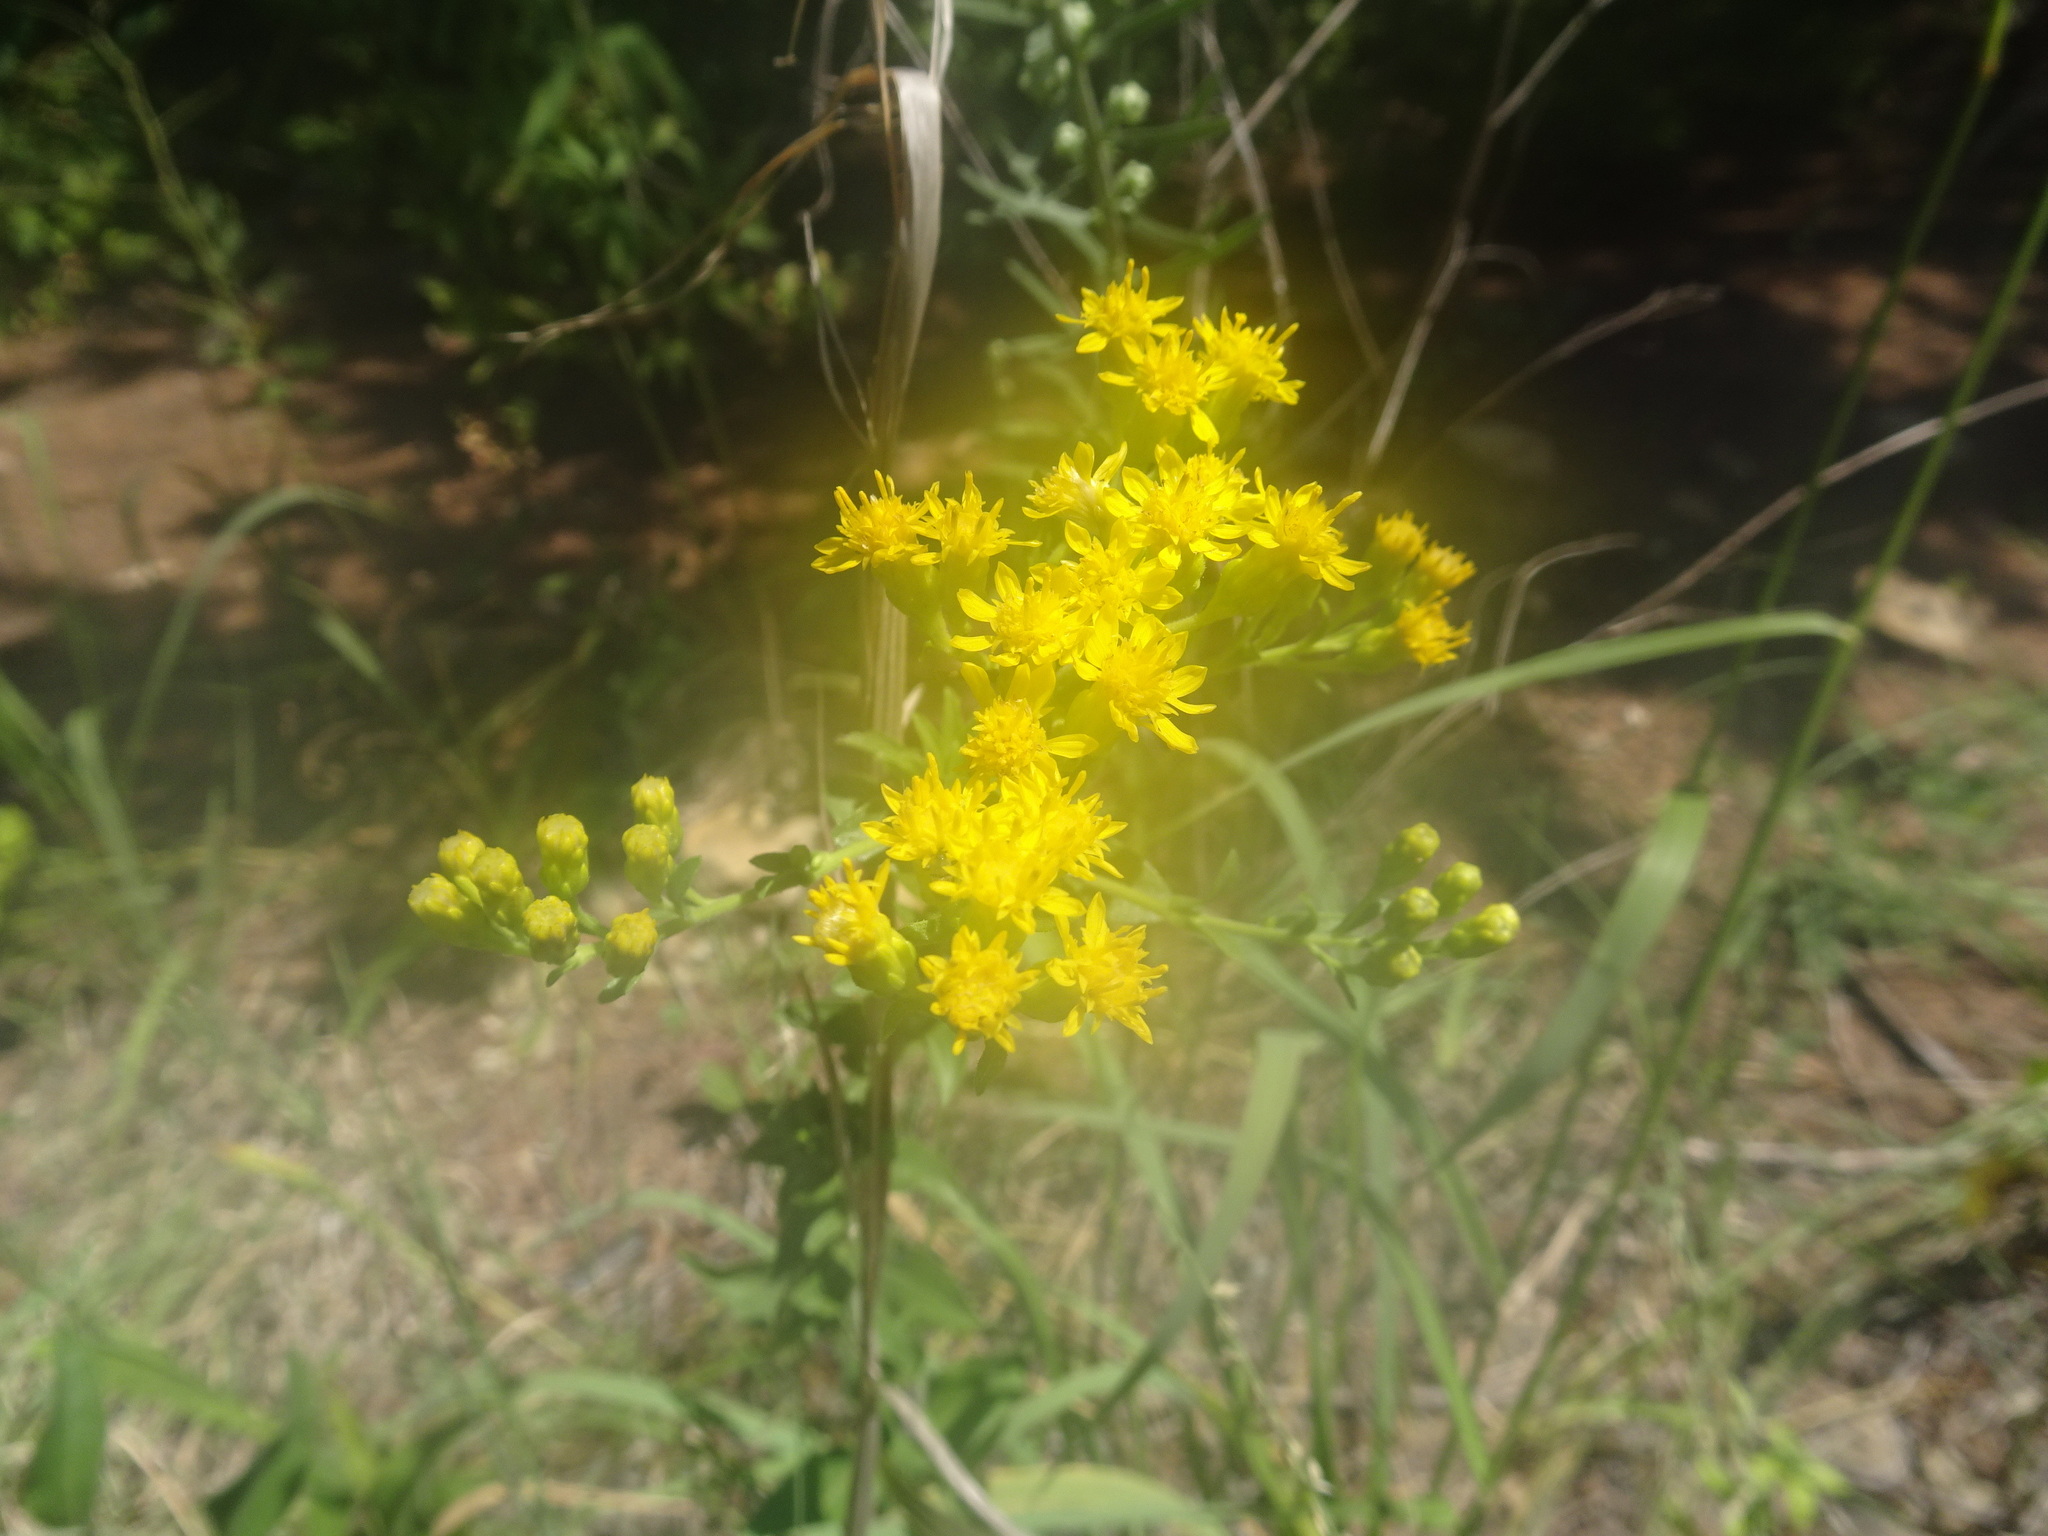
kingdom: Plantae
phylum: Tracheophyta
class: Magnoliopsida
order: Asterales
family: Asteraceae
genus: Solidago
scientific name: Solidago rigida
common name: Rigid goldenrod
